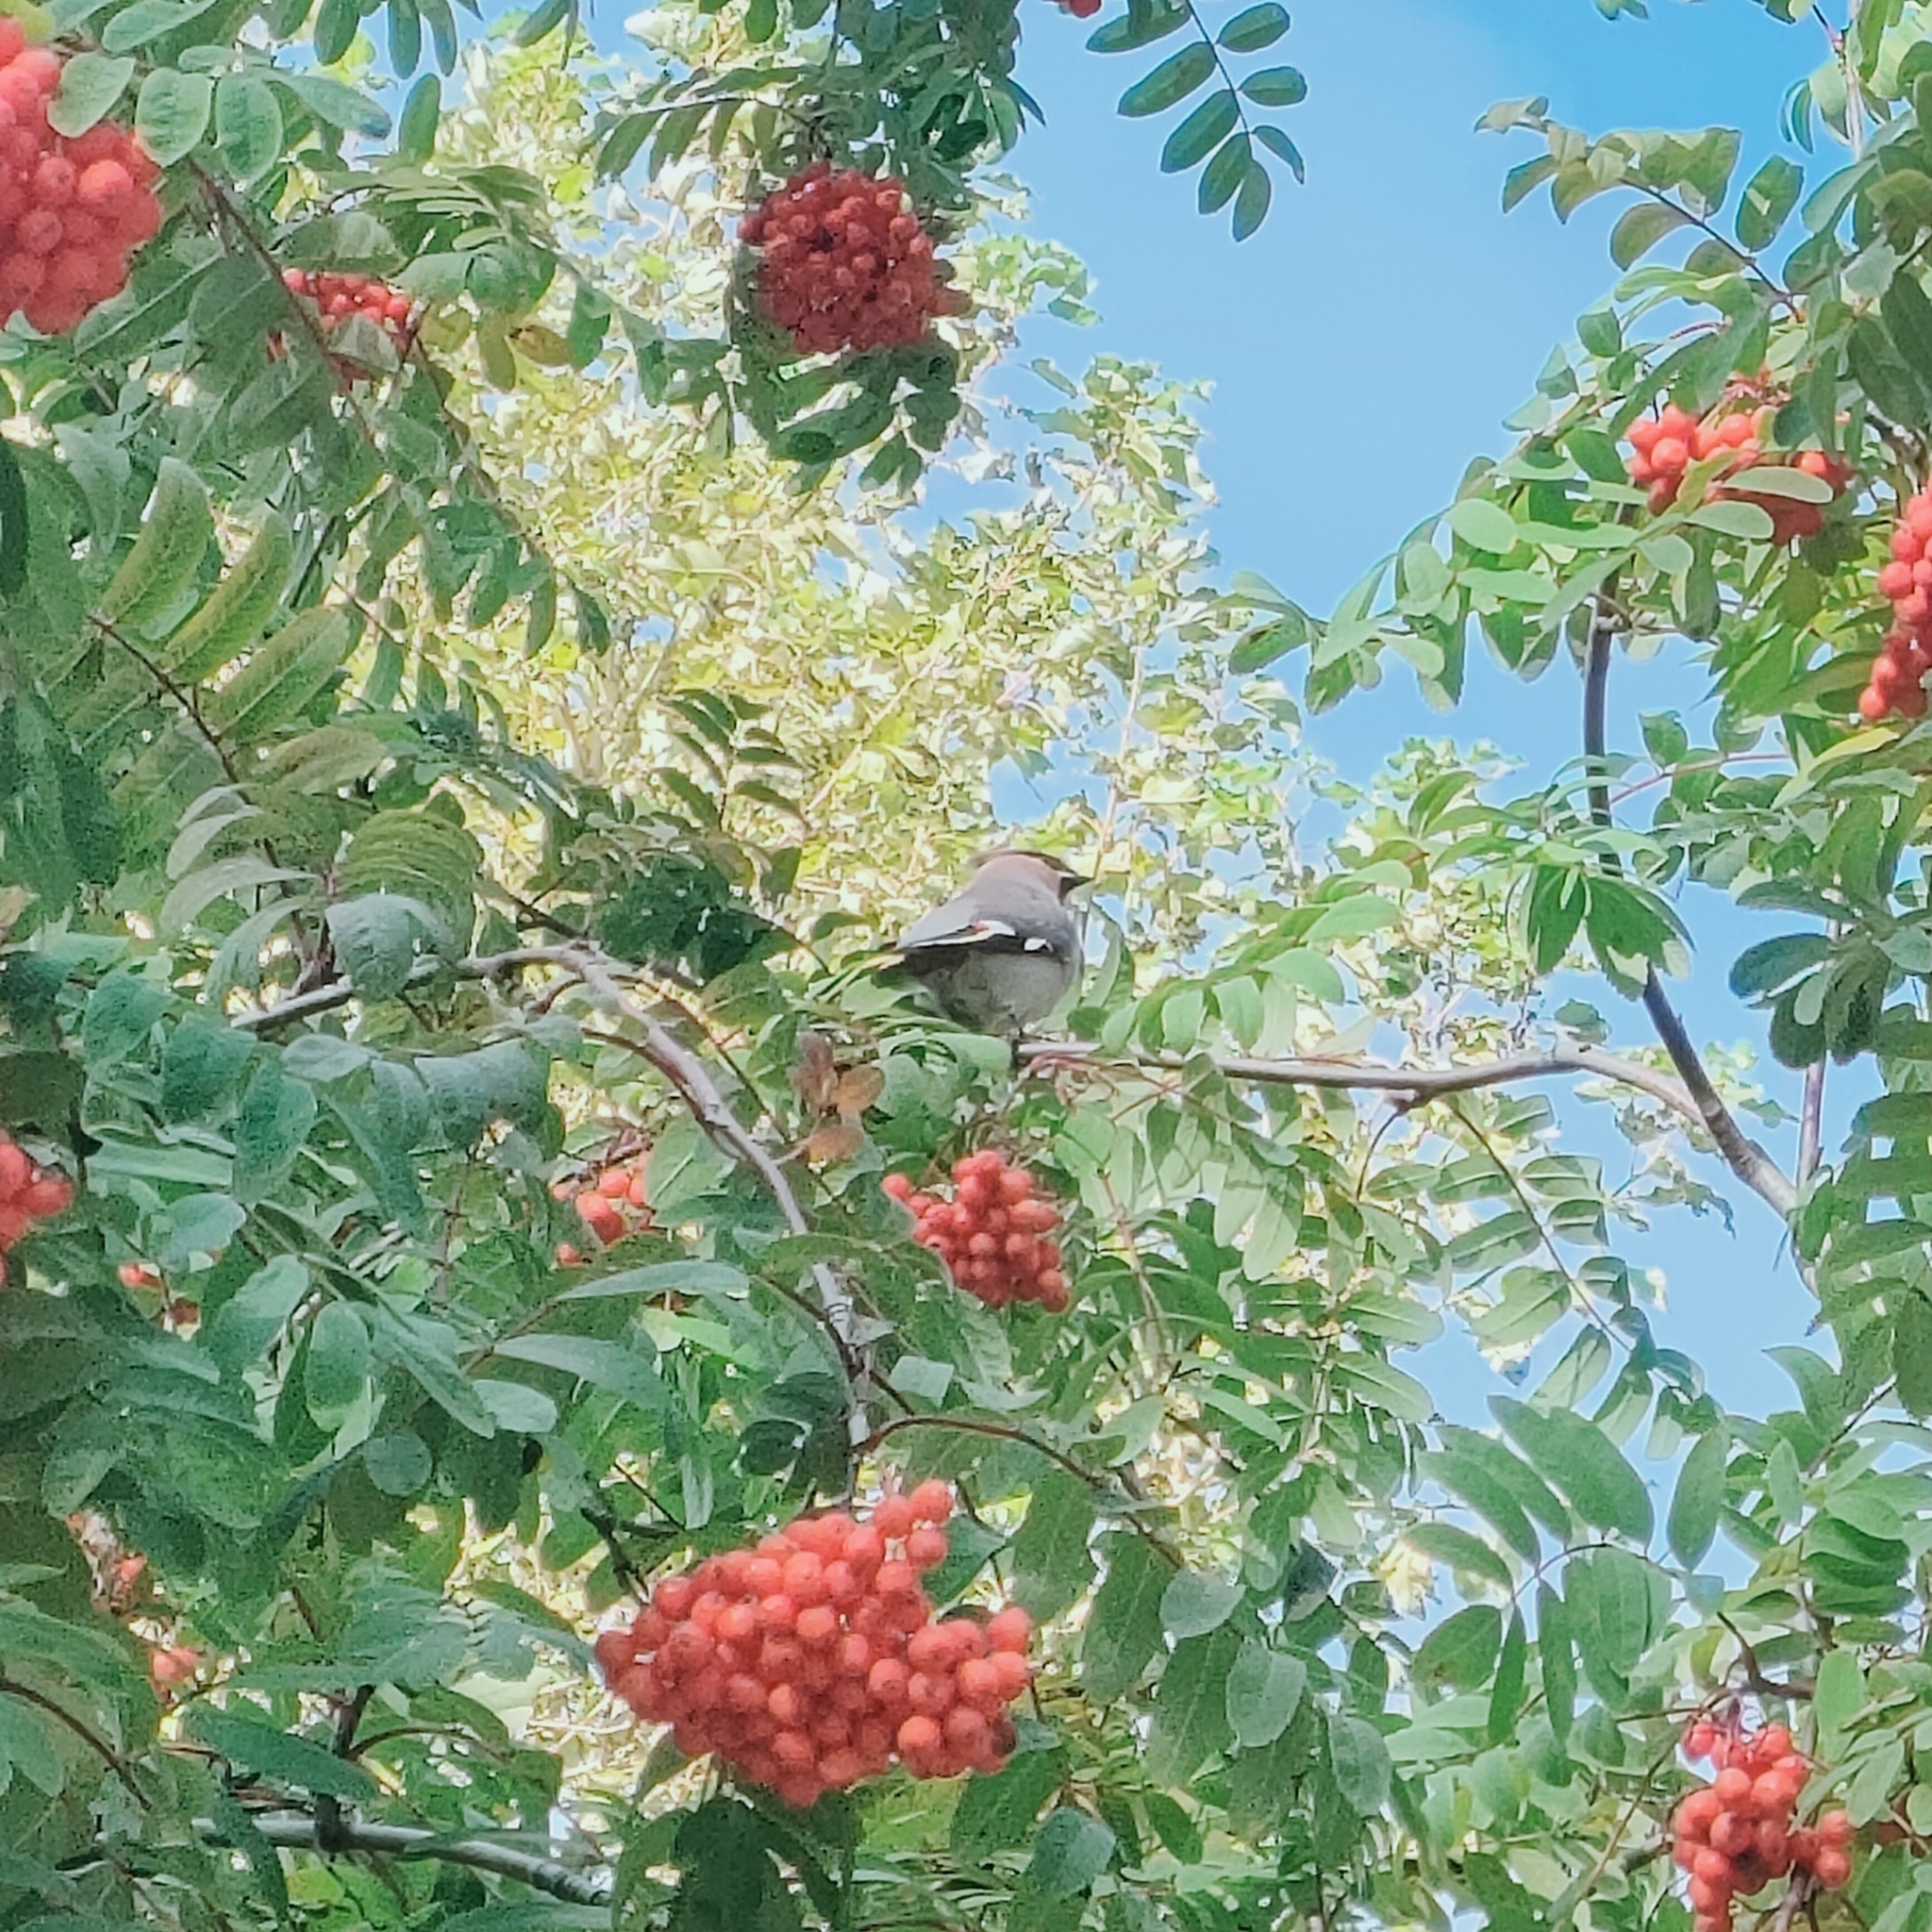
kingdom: Animalia
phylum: Chordata
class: Aves
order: Passeriformes
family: Bombycillidae
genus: Bombycilla
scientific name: Bombycilla garrulus
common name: Bohemian waxwing
